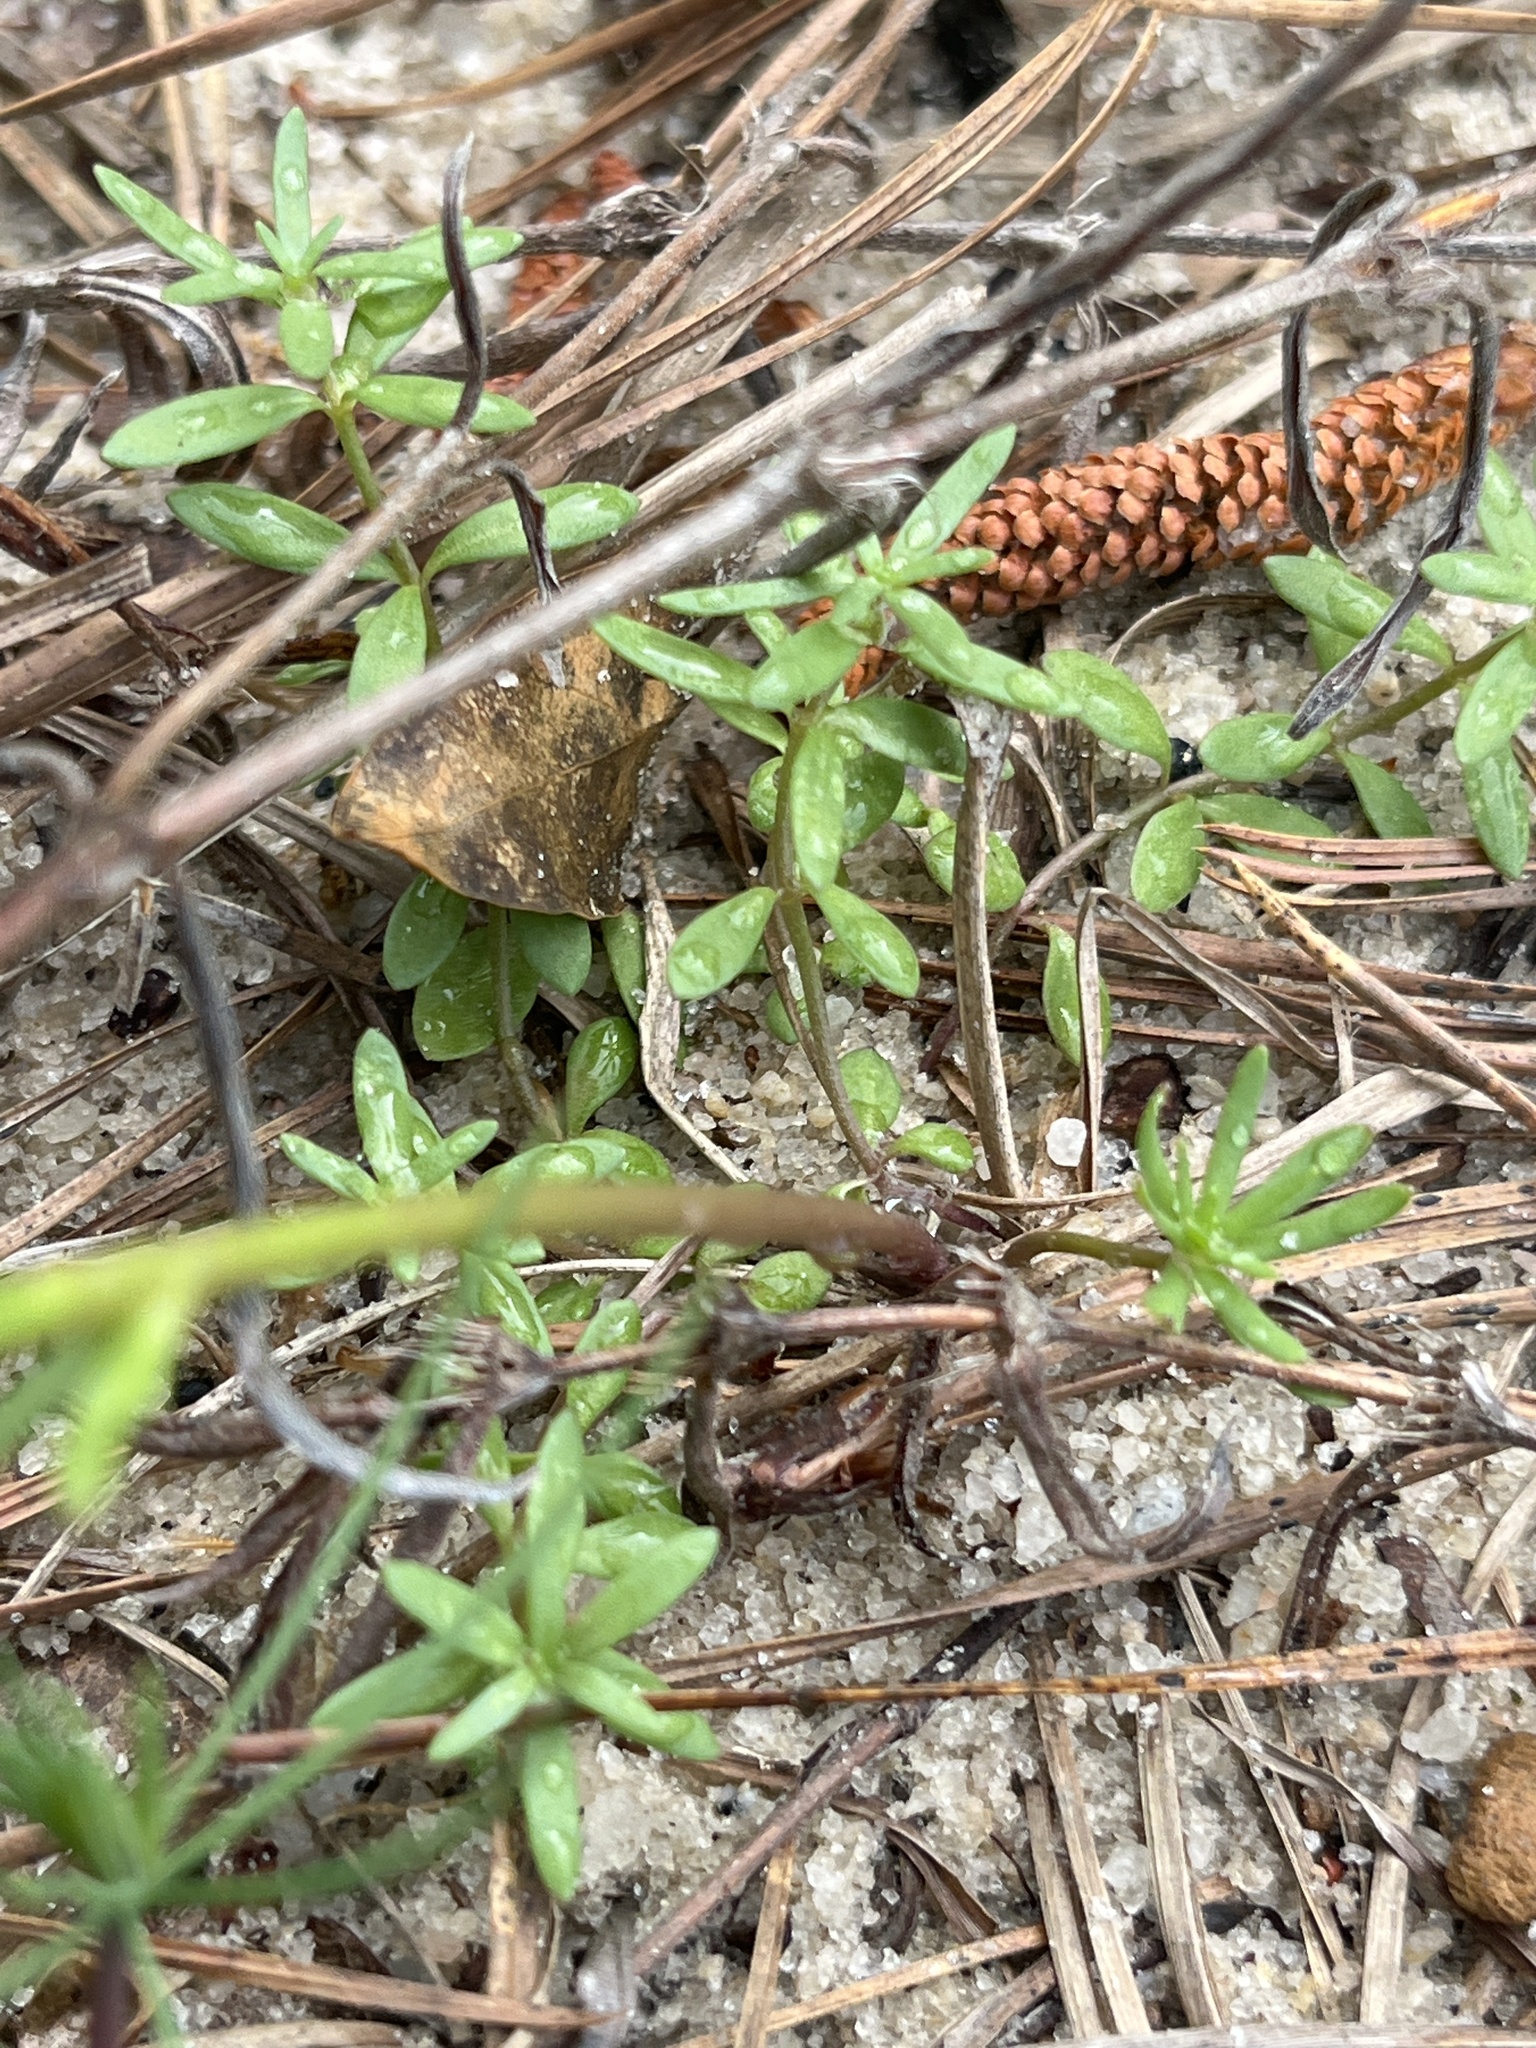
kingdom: Plantae
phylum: Tracheophyta
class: Magnoliopsida
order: Lamiales
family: Plantaginaceae
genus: Nuttallanthus
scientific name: Nuttallanthus canadensis
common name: Blue toadflax
